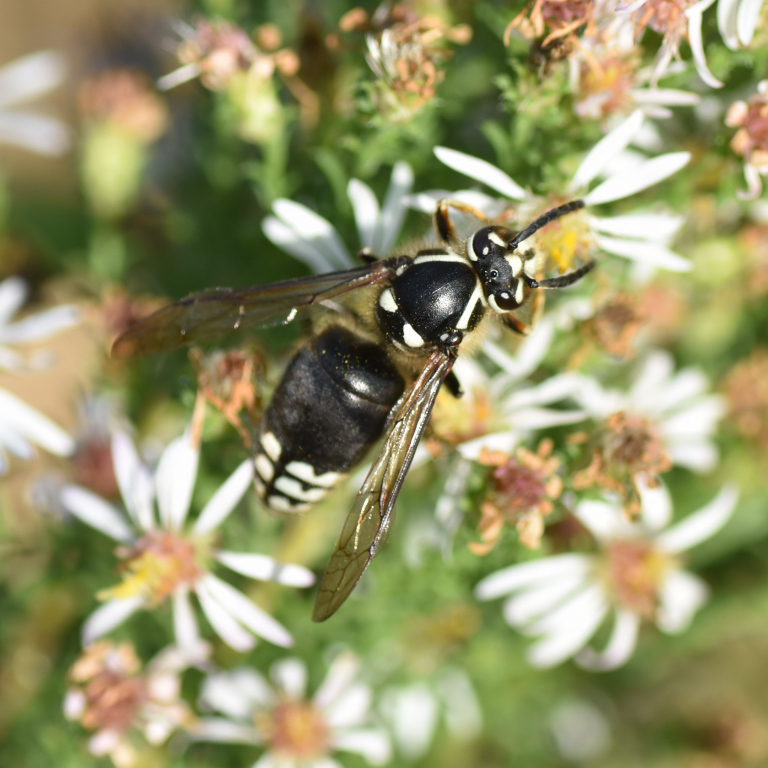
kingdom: Animalia
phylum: Arthropoda
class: Insecta
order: Hymenoptera
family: Vespidae
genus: Dolichovespula
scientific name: Dolichovespula maculata
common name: Bald-faced hornet
